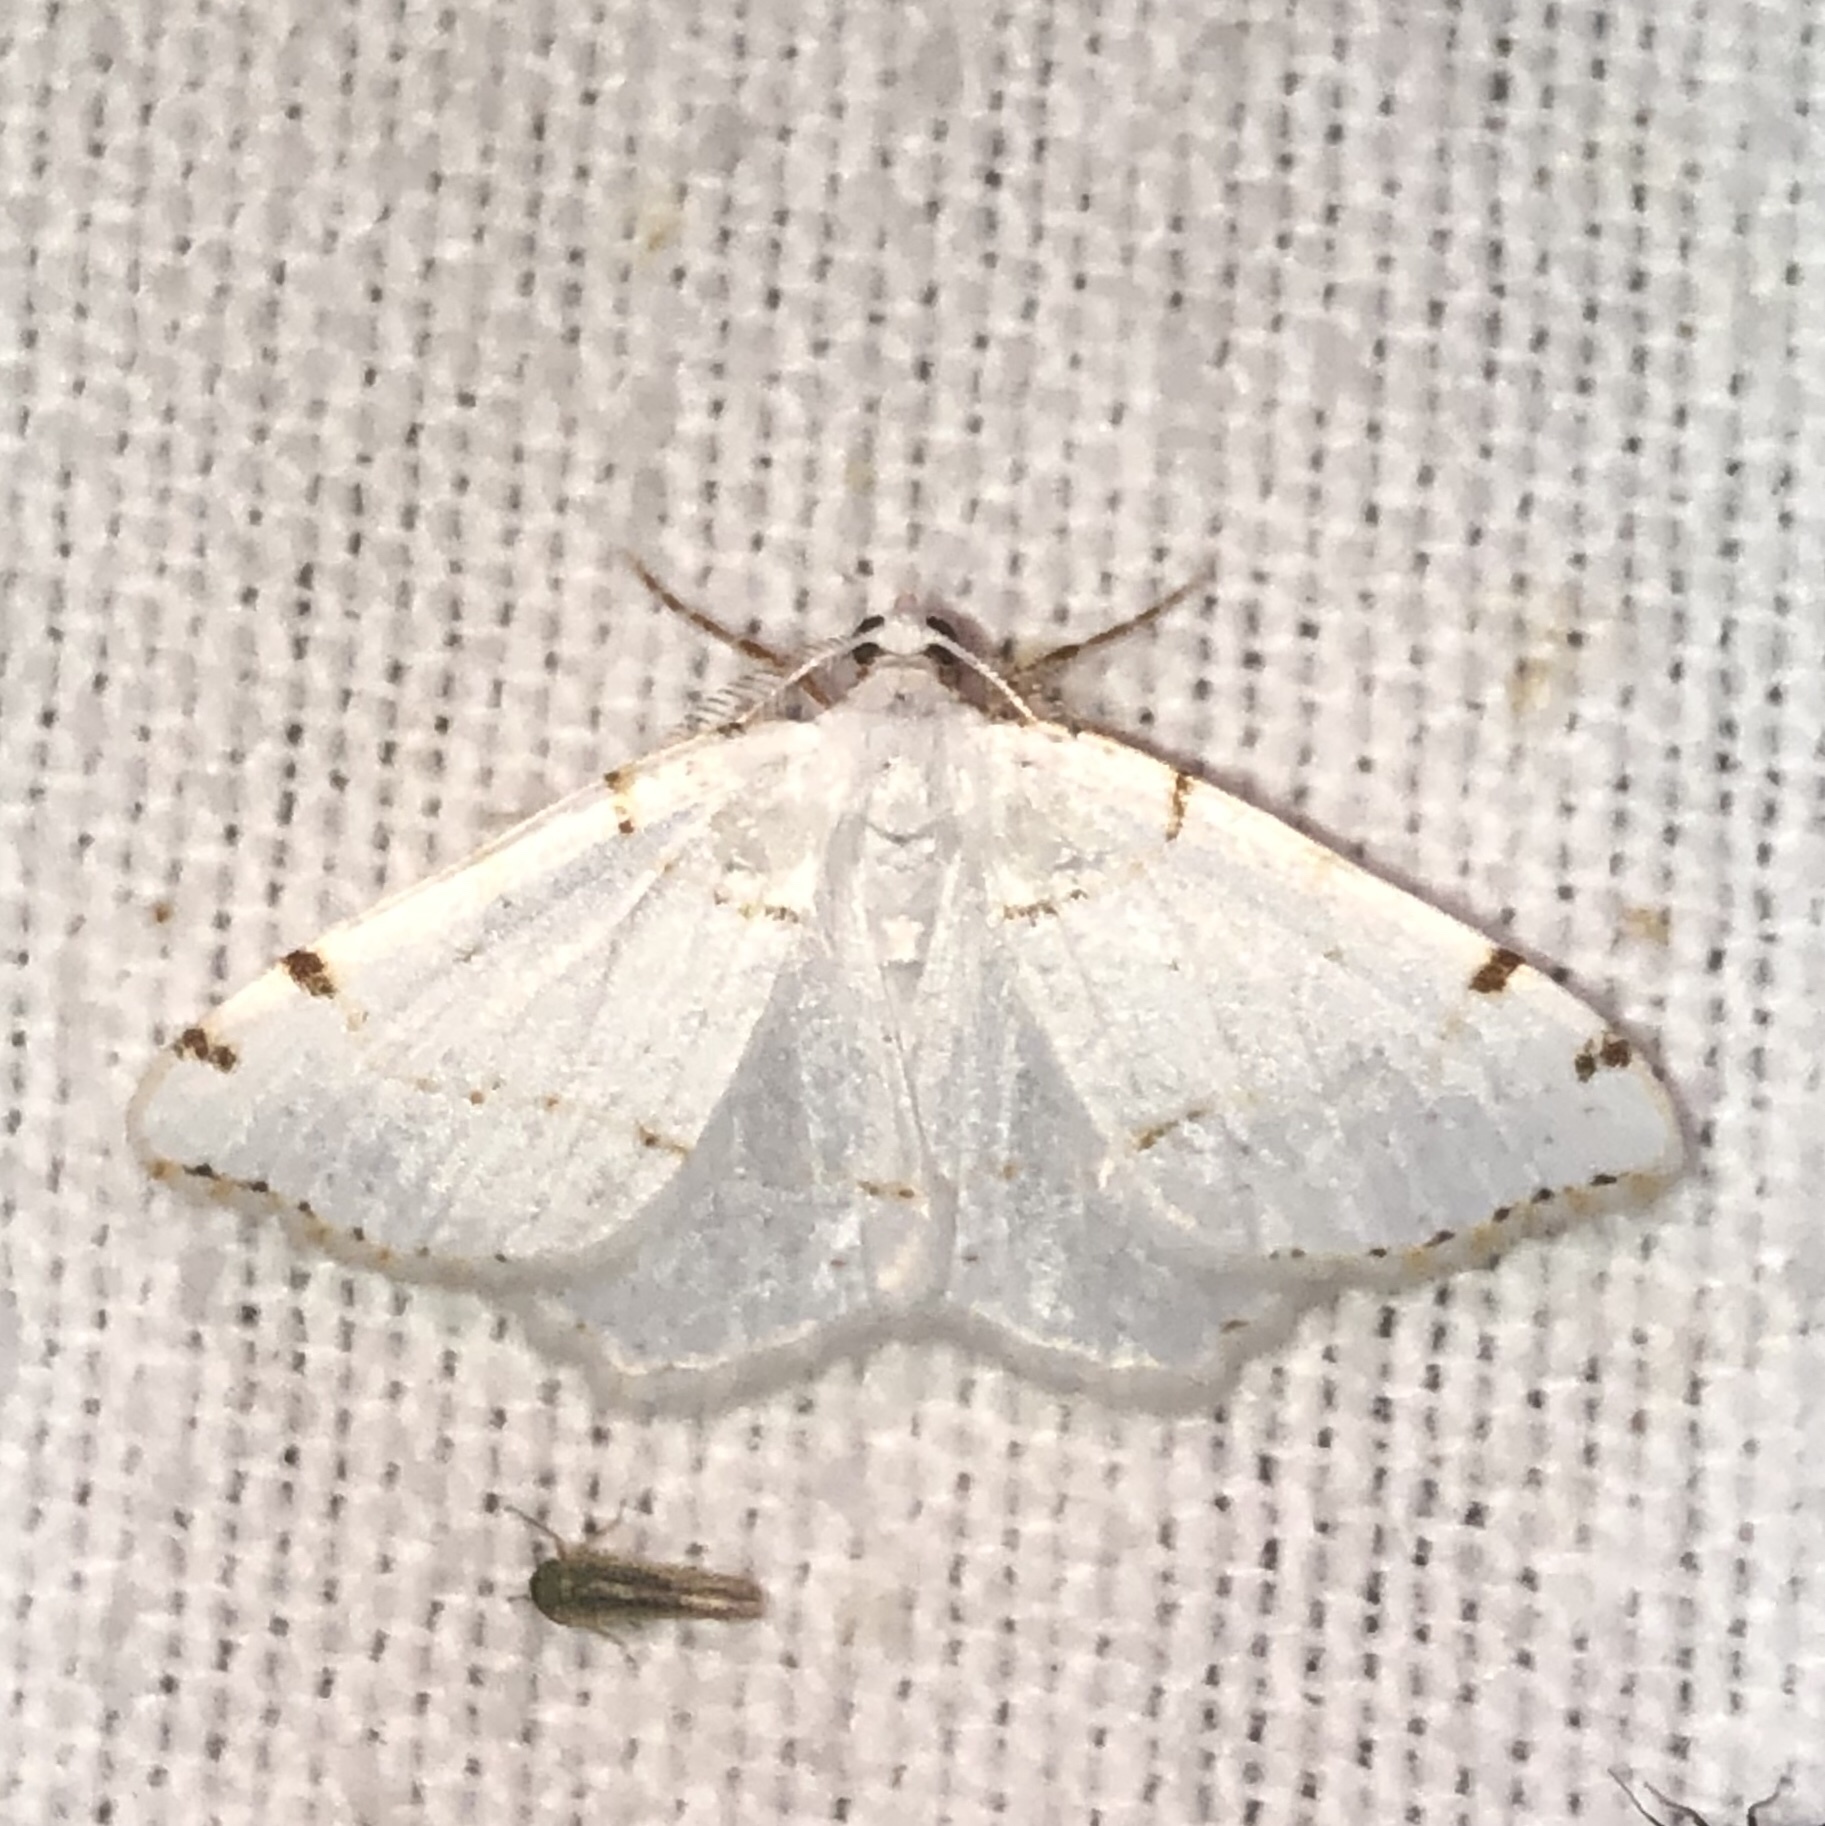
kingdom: Animalia
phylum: Arthropoda
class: Insecta
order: Lepidoptera
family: Geometridae
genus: Macaria
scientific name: Macaria pustularia
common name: Lesser maple spanworm moth
